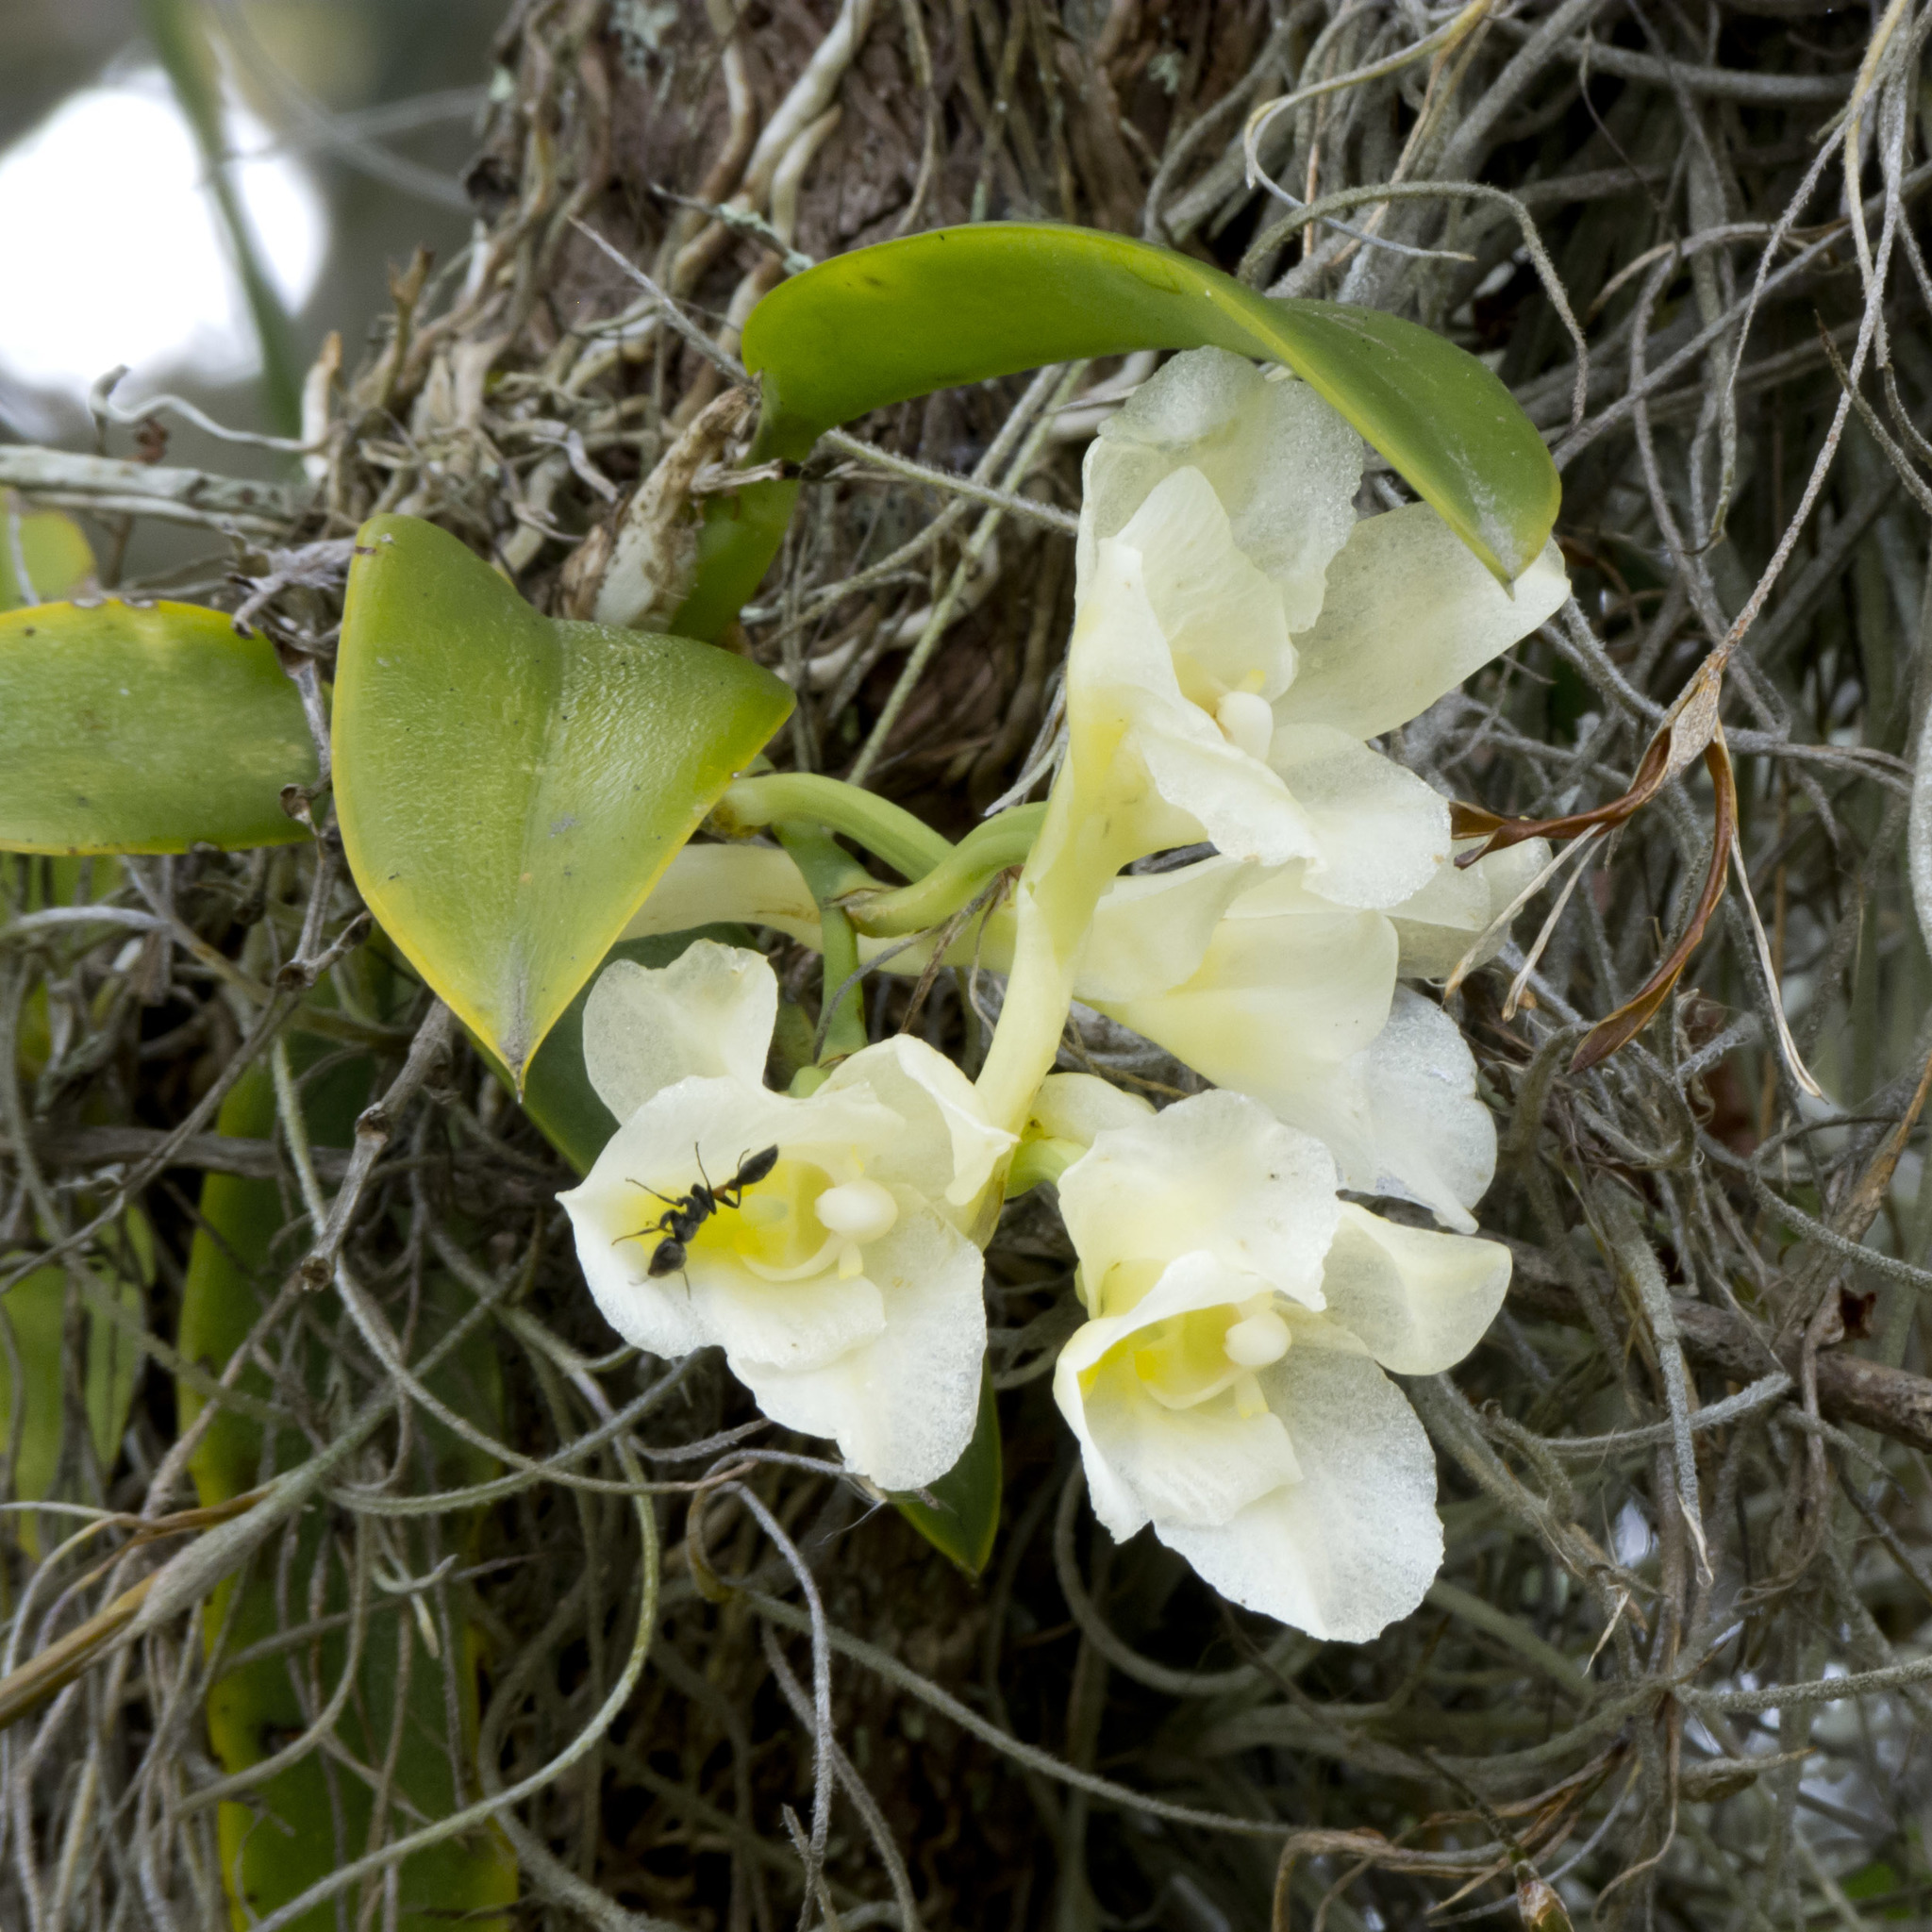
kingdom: Plantae
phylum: Tracheophyta
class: Liliopsida
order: Asparagales
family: Orchidaceae
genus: Rodriguezia
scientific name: Rodriguezia granadensis
